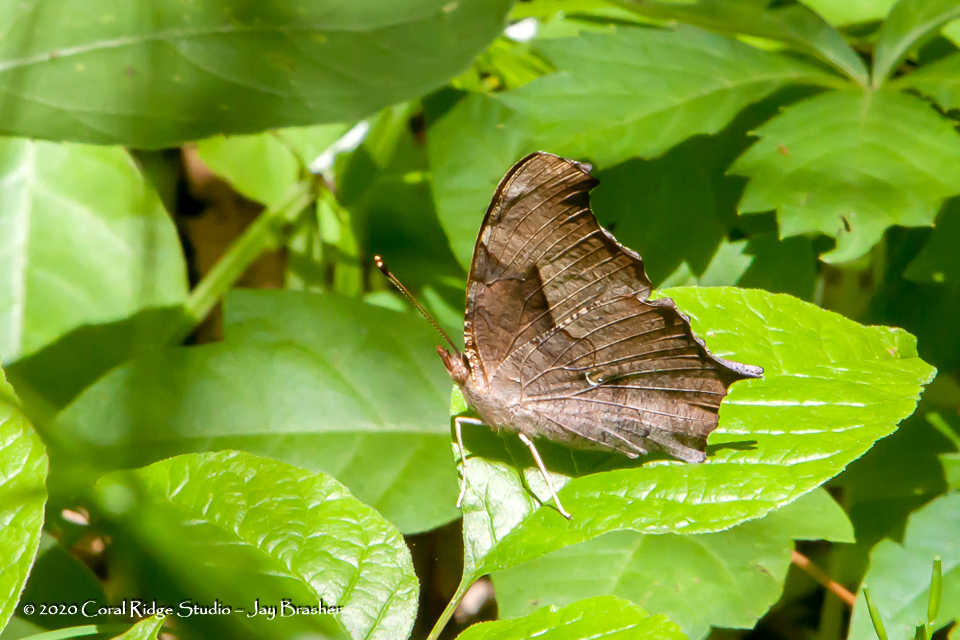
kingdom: Animalia
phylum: Arthropoda
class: Insecta
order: Lepidoptera
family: Nymphalidae
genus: Polygonia
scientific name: Polygonia interrogationis
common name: Question mark
